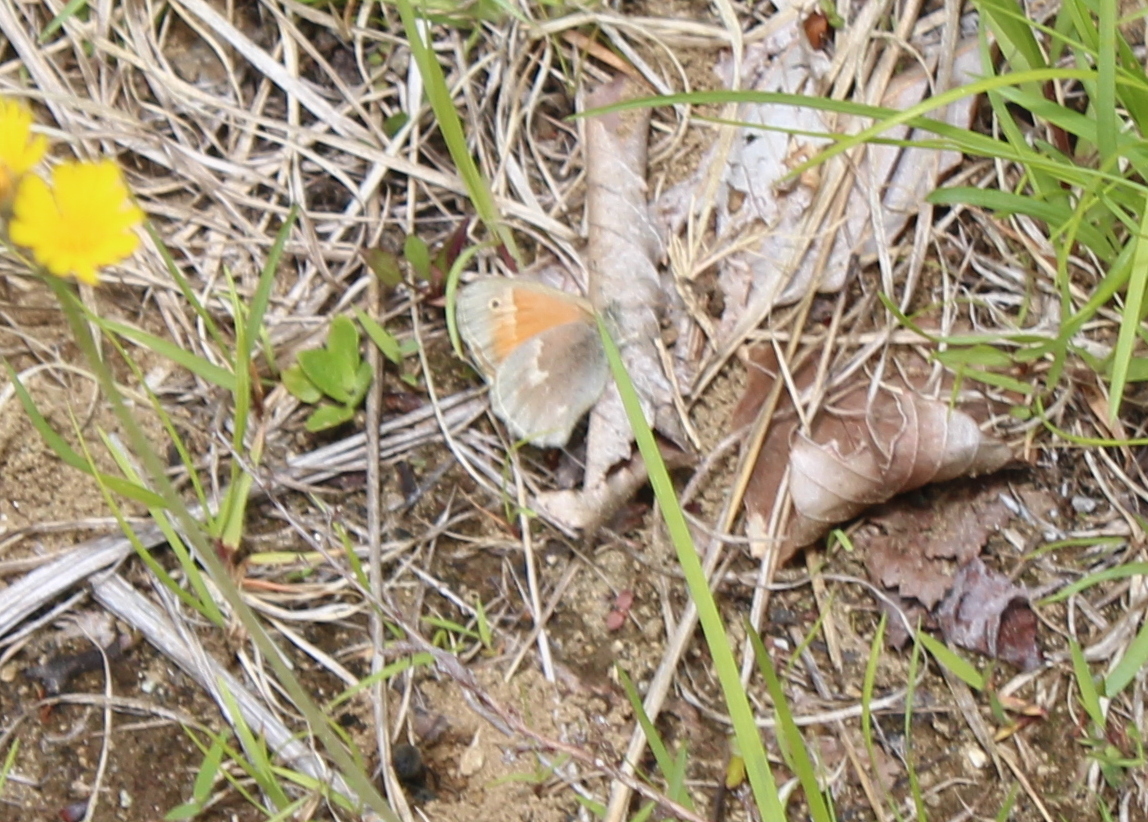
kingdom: Animalia
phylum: Arthropoda
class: Insecta
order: Lepidoptera
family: Nymphalidae
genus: Coenonympha
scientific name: Coenonympha california
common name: Common ringlet
